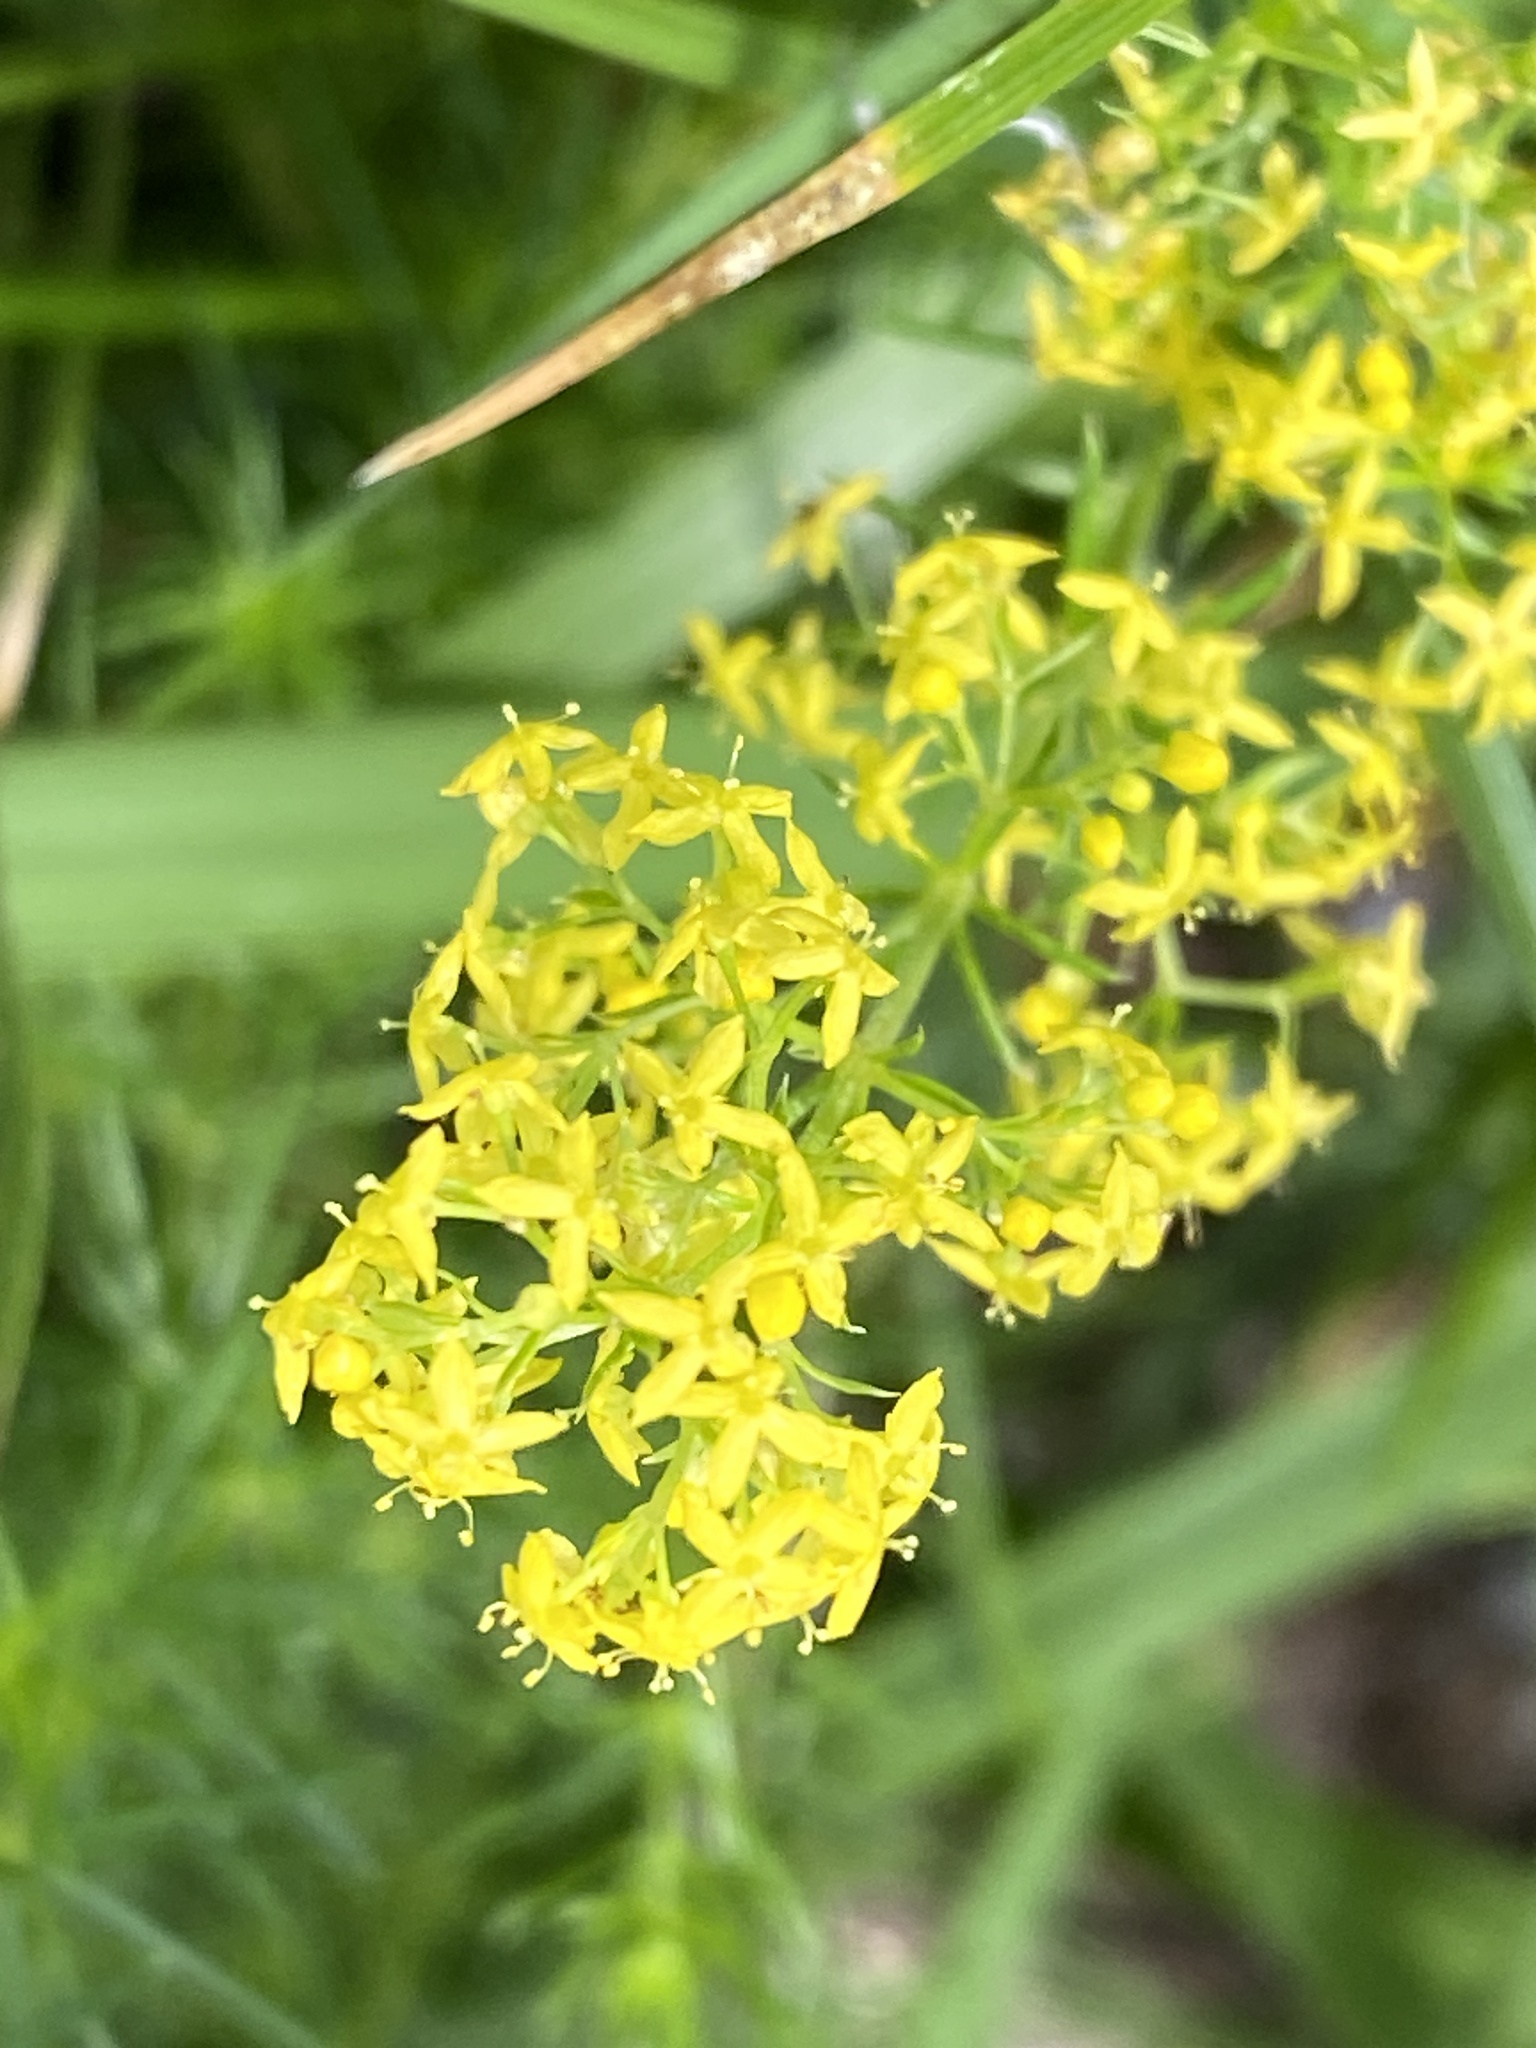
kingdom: Plantae
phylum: Tracheophyta
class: Magnoliopsida
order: Gentianales
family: Rubiaceae
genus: Galium
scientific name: Galium verum
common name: Lady's bedstraw
